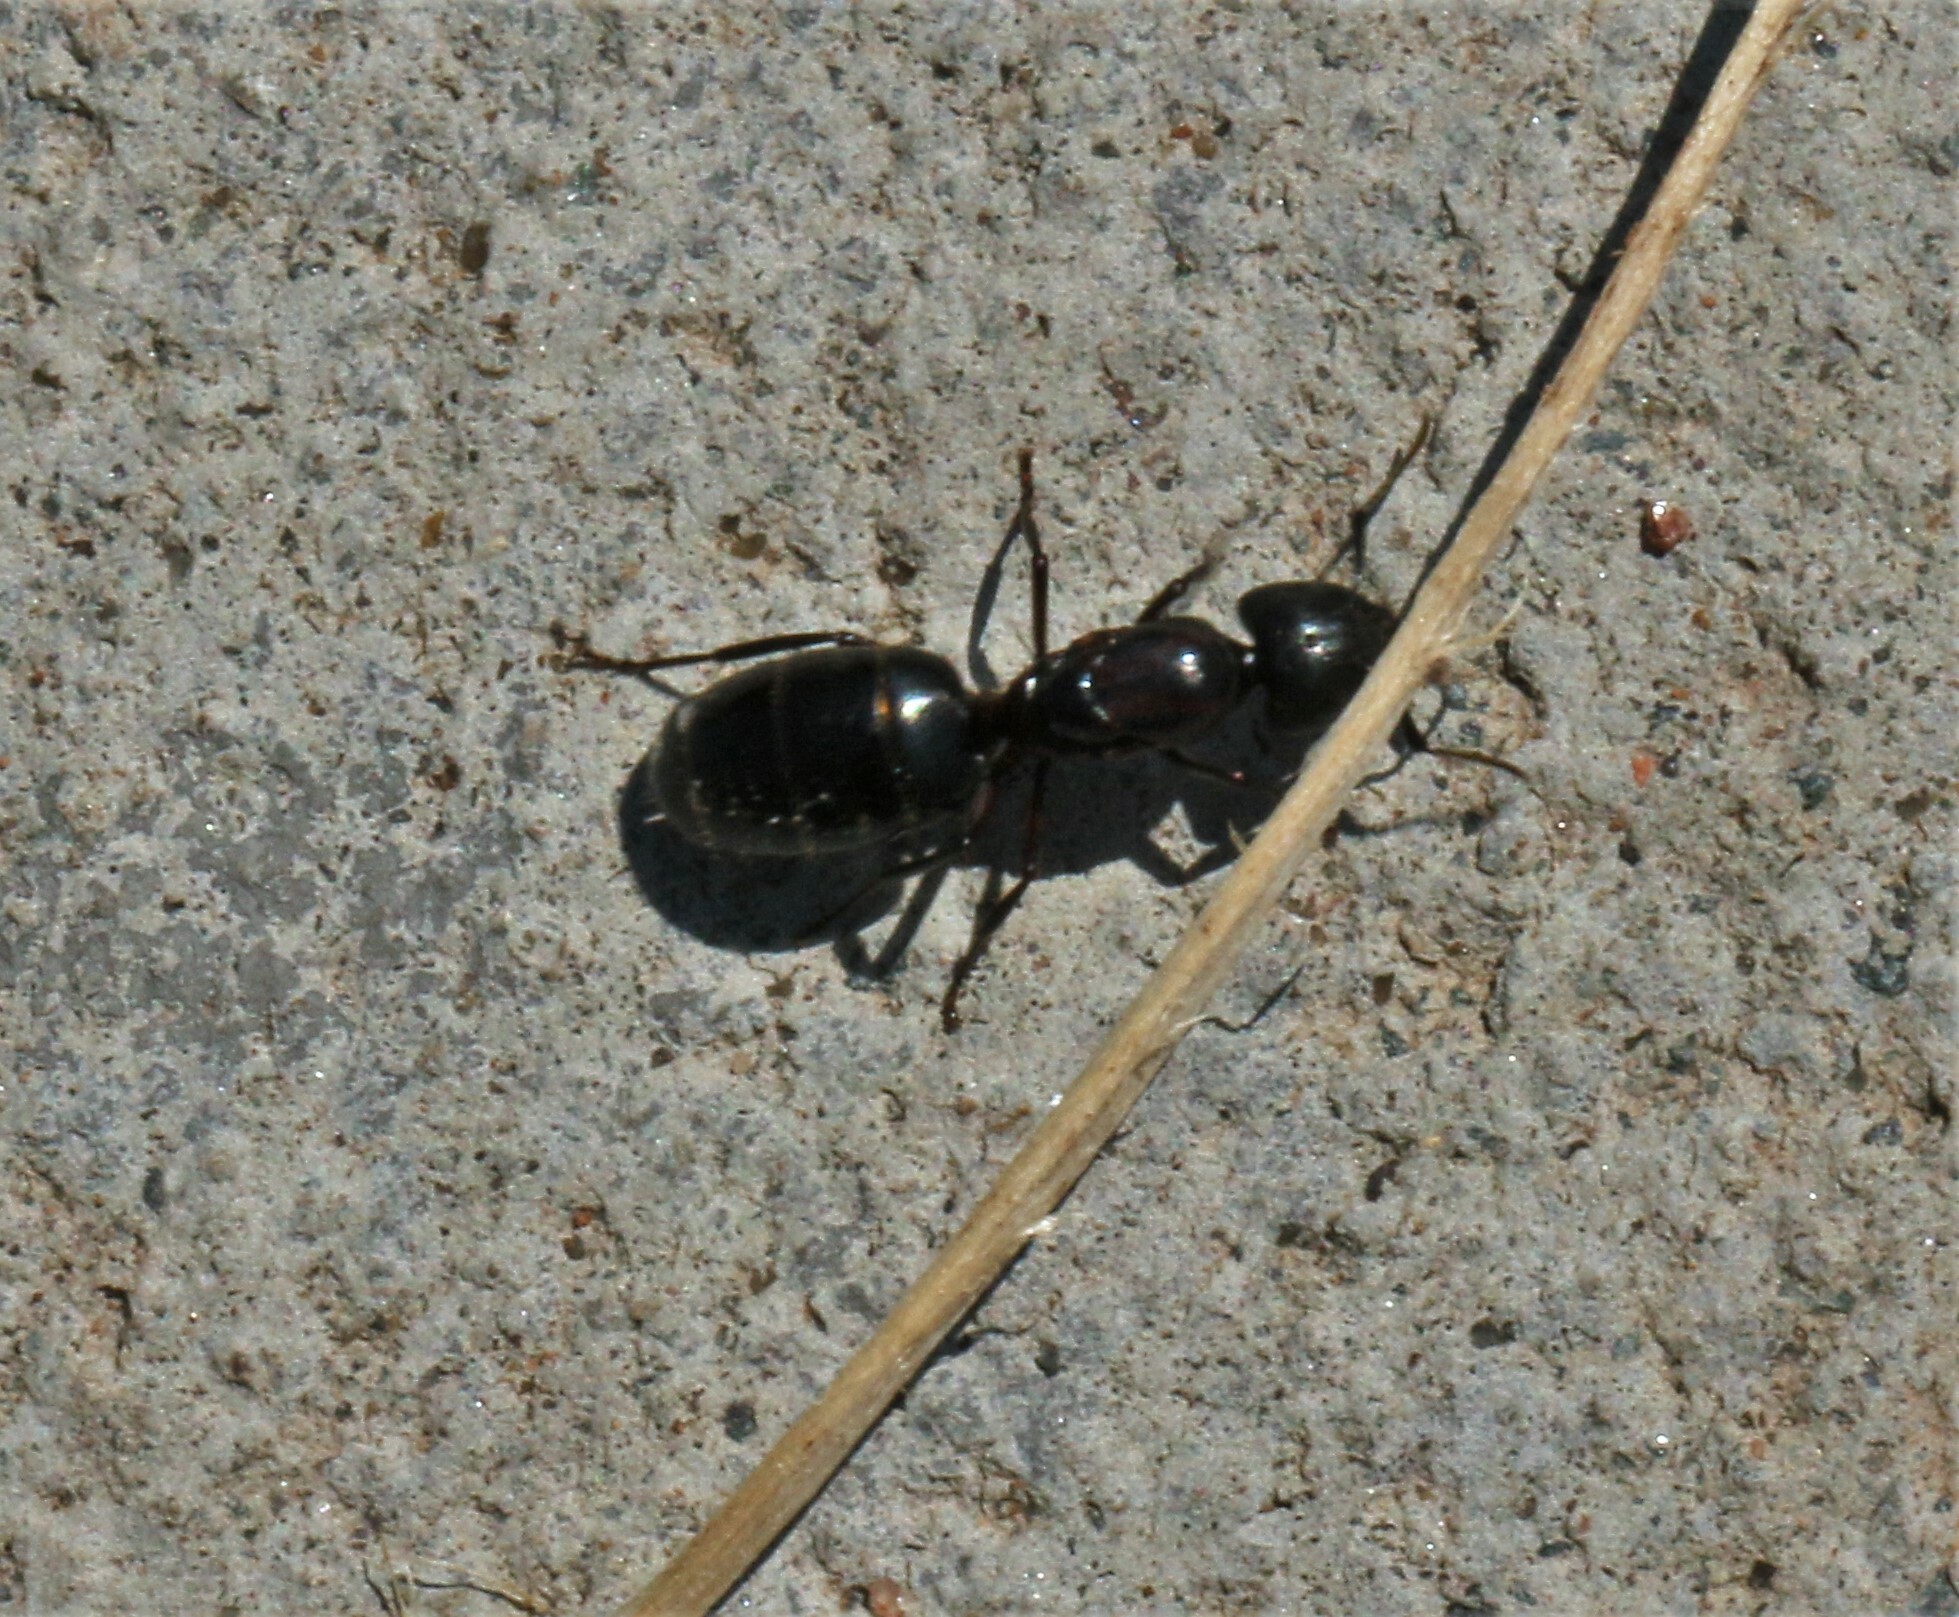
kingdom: Animalia
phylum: Arthropoda
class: Insecta
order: Hymenoptera
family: Formicidae
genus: Camponotus
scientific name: Camponotus novaeboracensis
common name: New york carpenter ant
